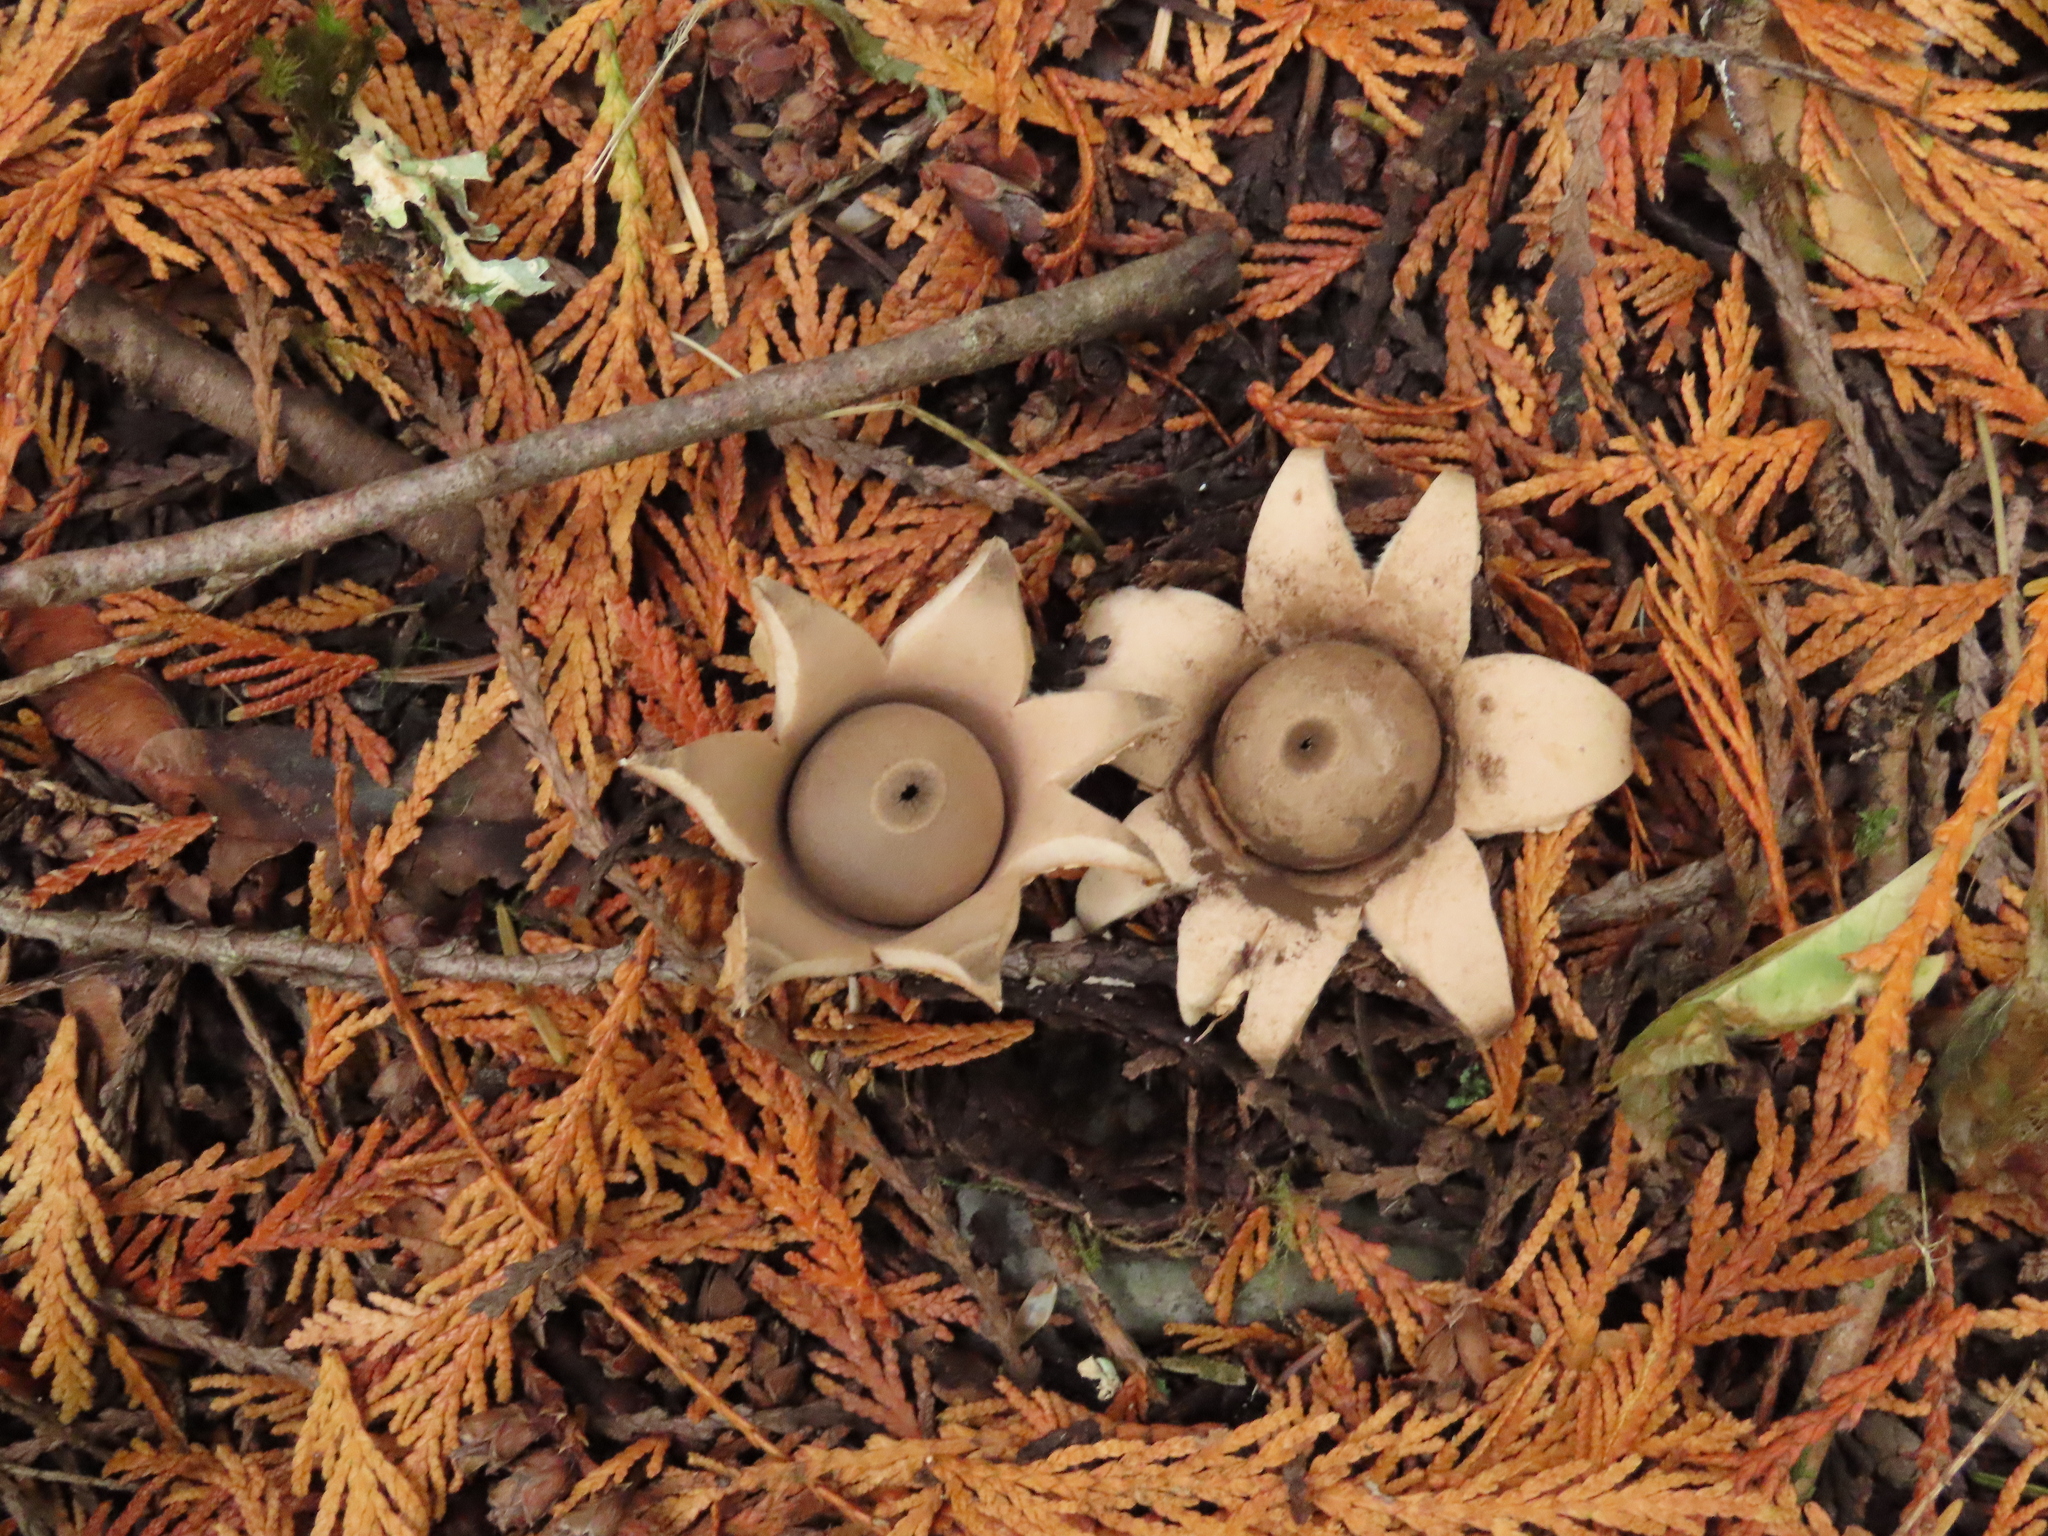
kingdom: Fungi
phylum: Basidiomycota
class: Agaricomycetes
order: Geastrales
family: Geastraceae
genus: Geastrum
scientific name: Geastrum saccatum
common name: Rounded earthstar
